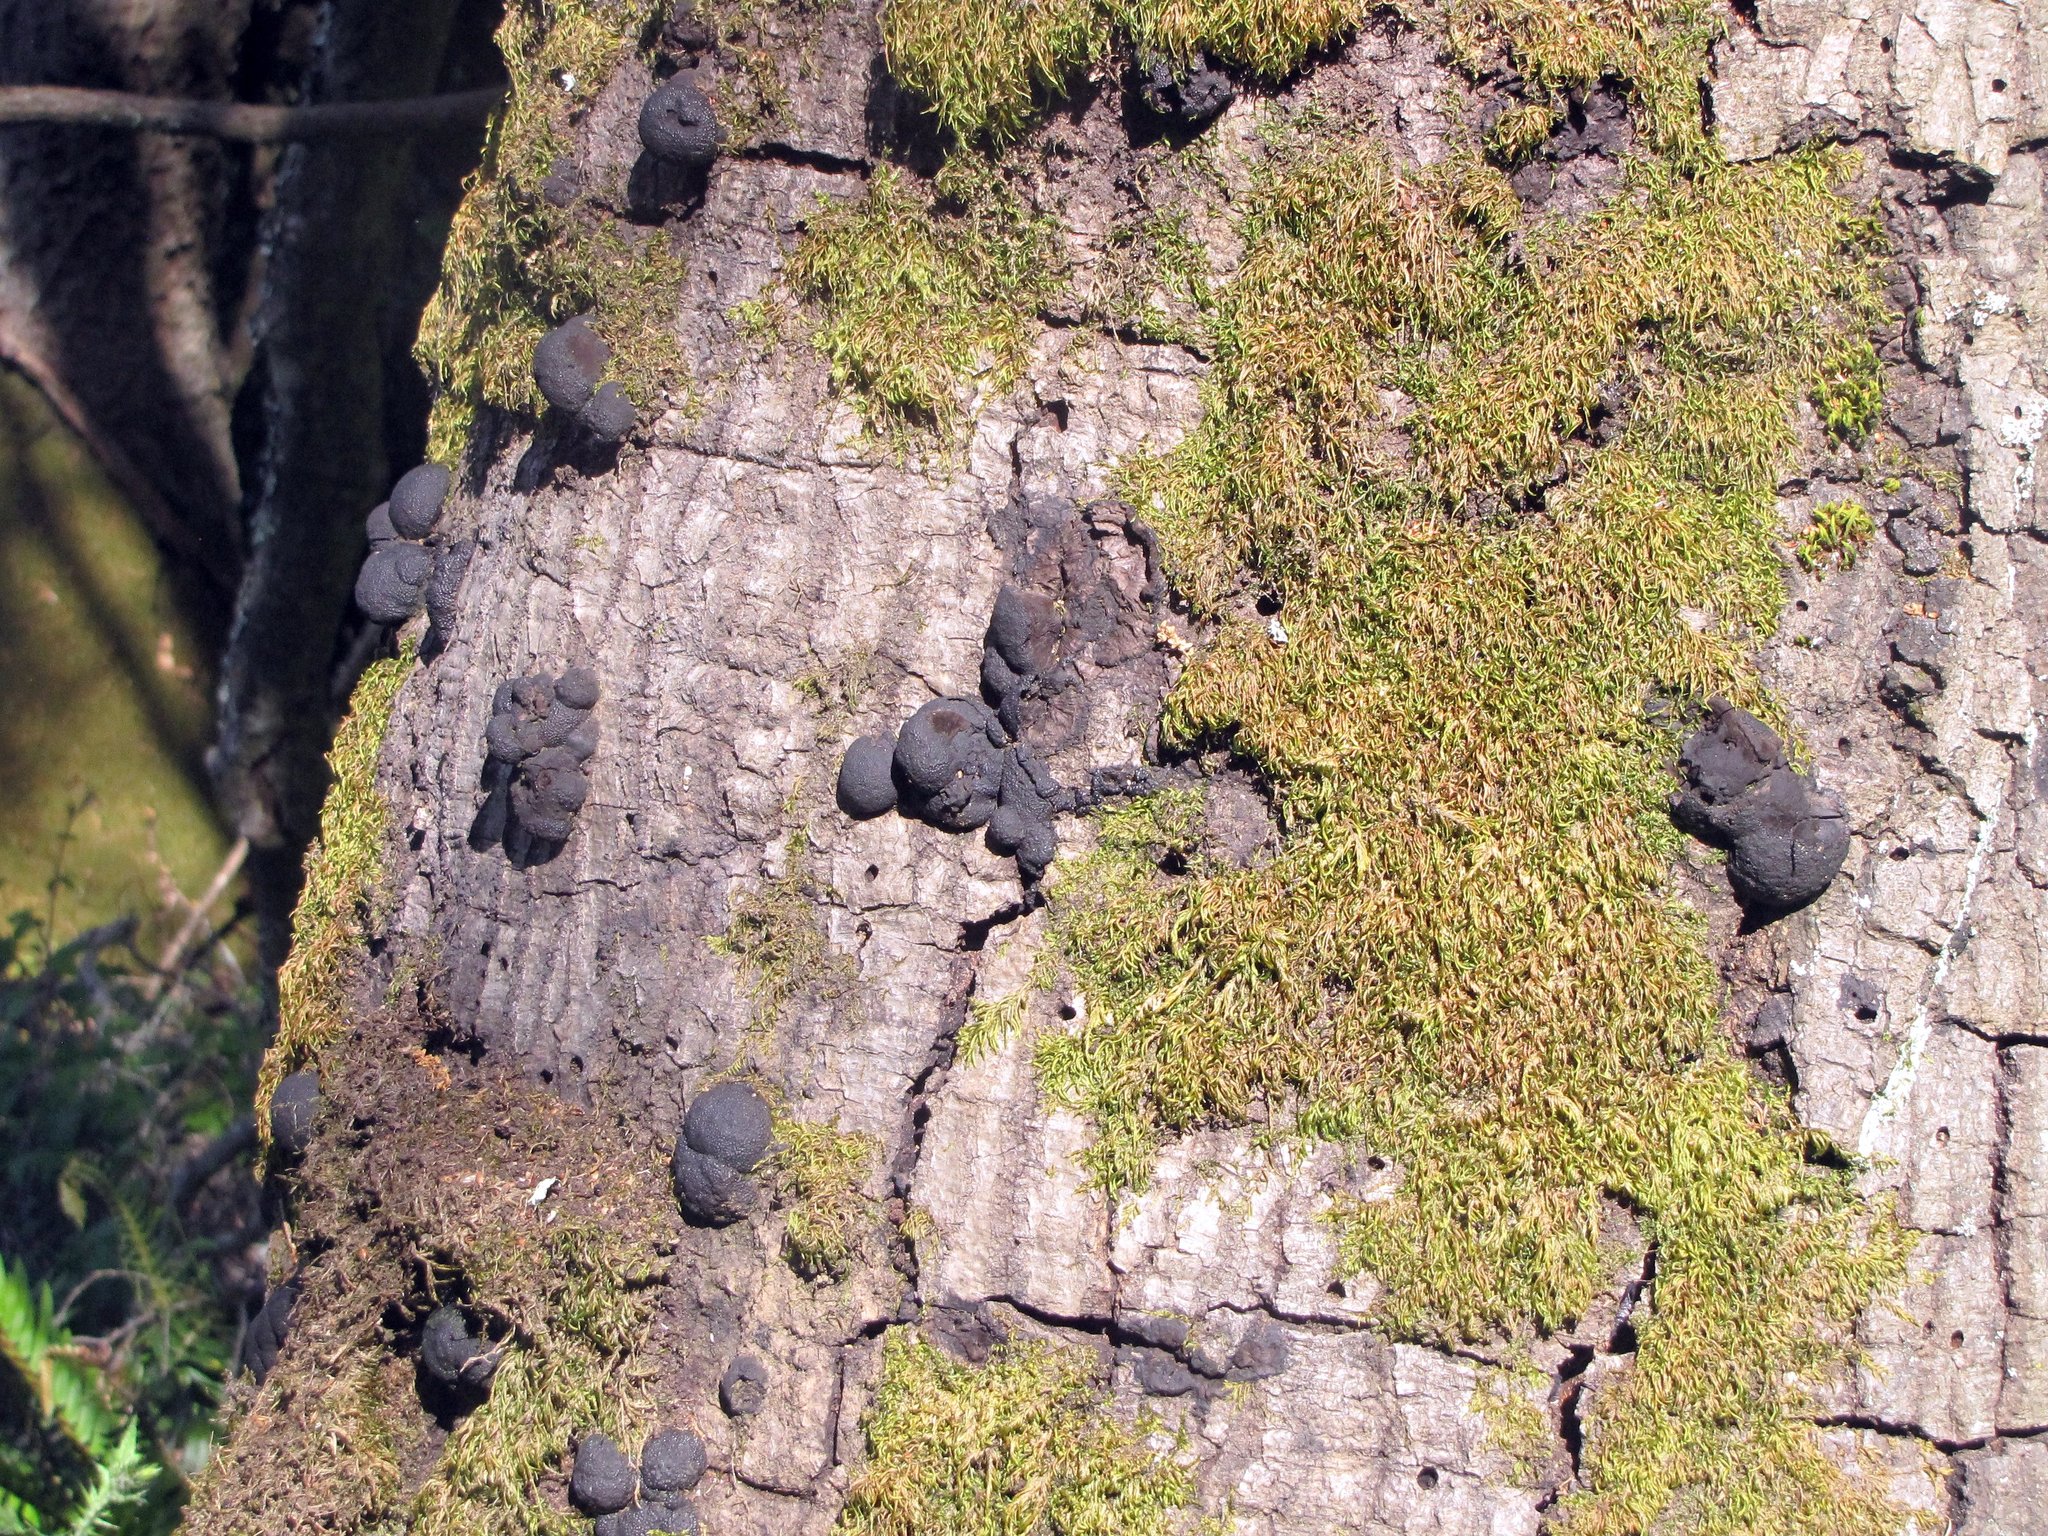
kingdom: Fungi
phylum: Ascomycota
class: Sordariomycetes
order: Xylariales
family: Hypoxylaceae
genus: Annulohypoxylon
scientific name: Annulohypoxylon thouarsianum
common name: Cramp balls
